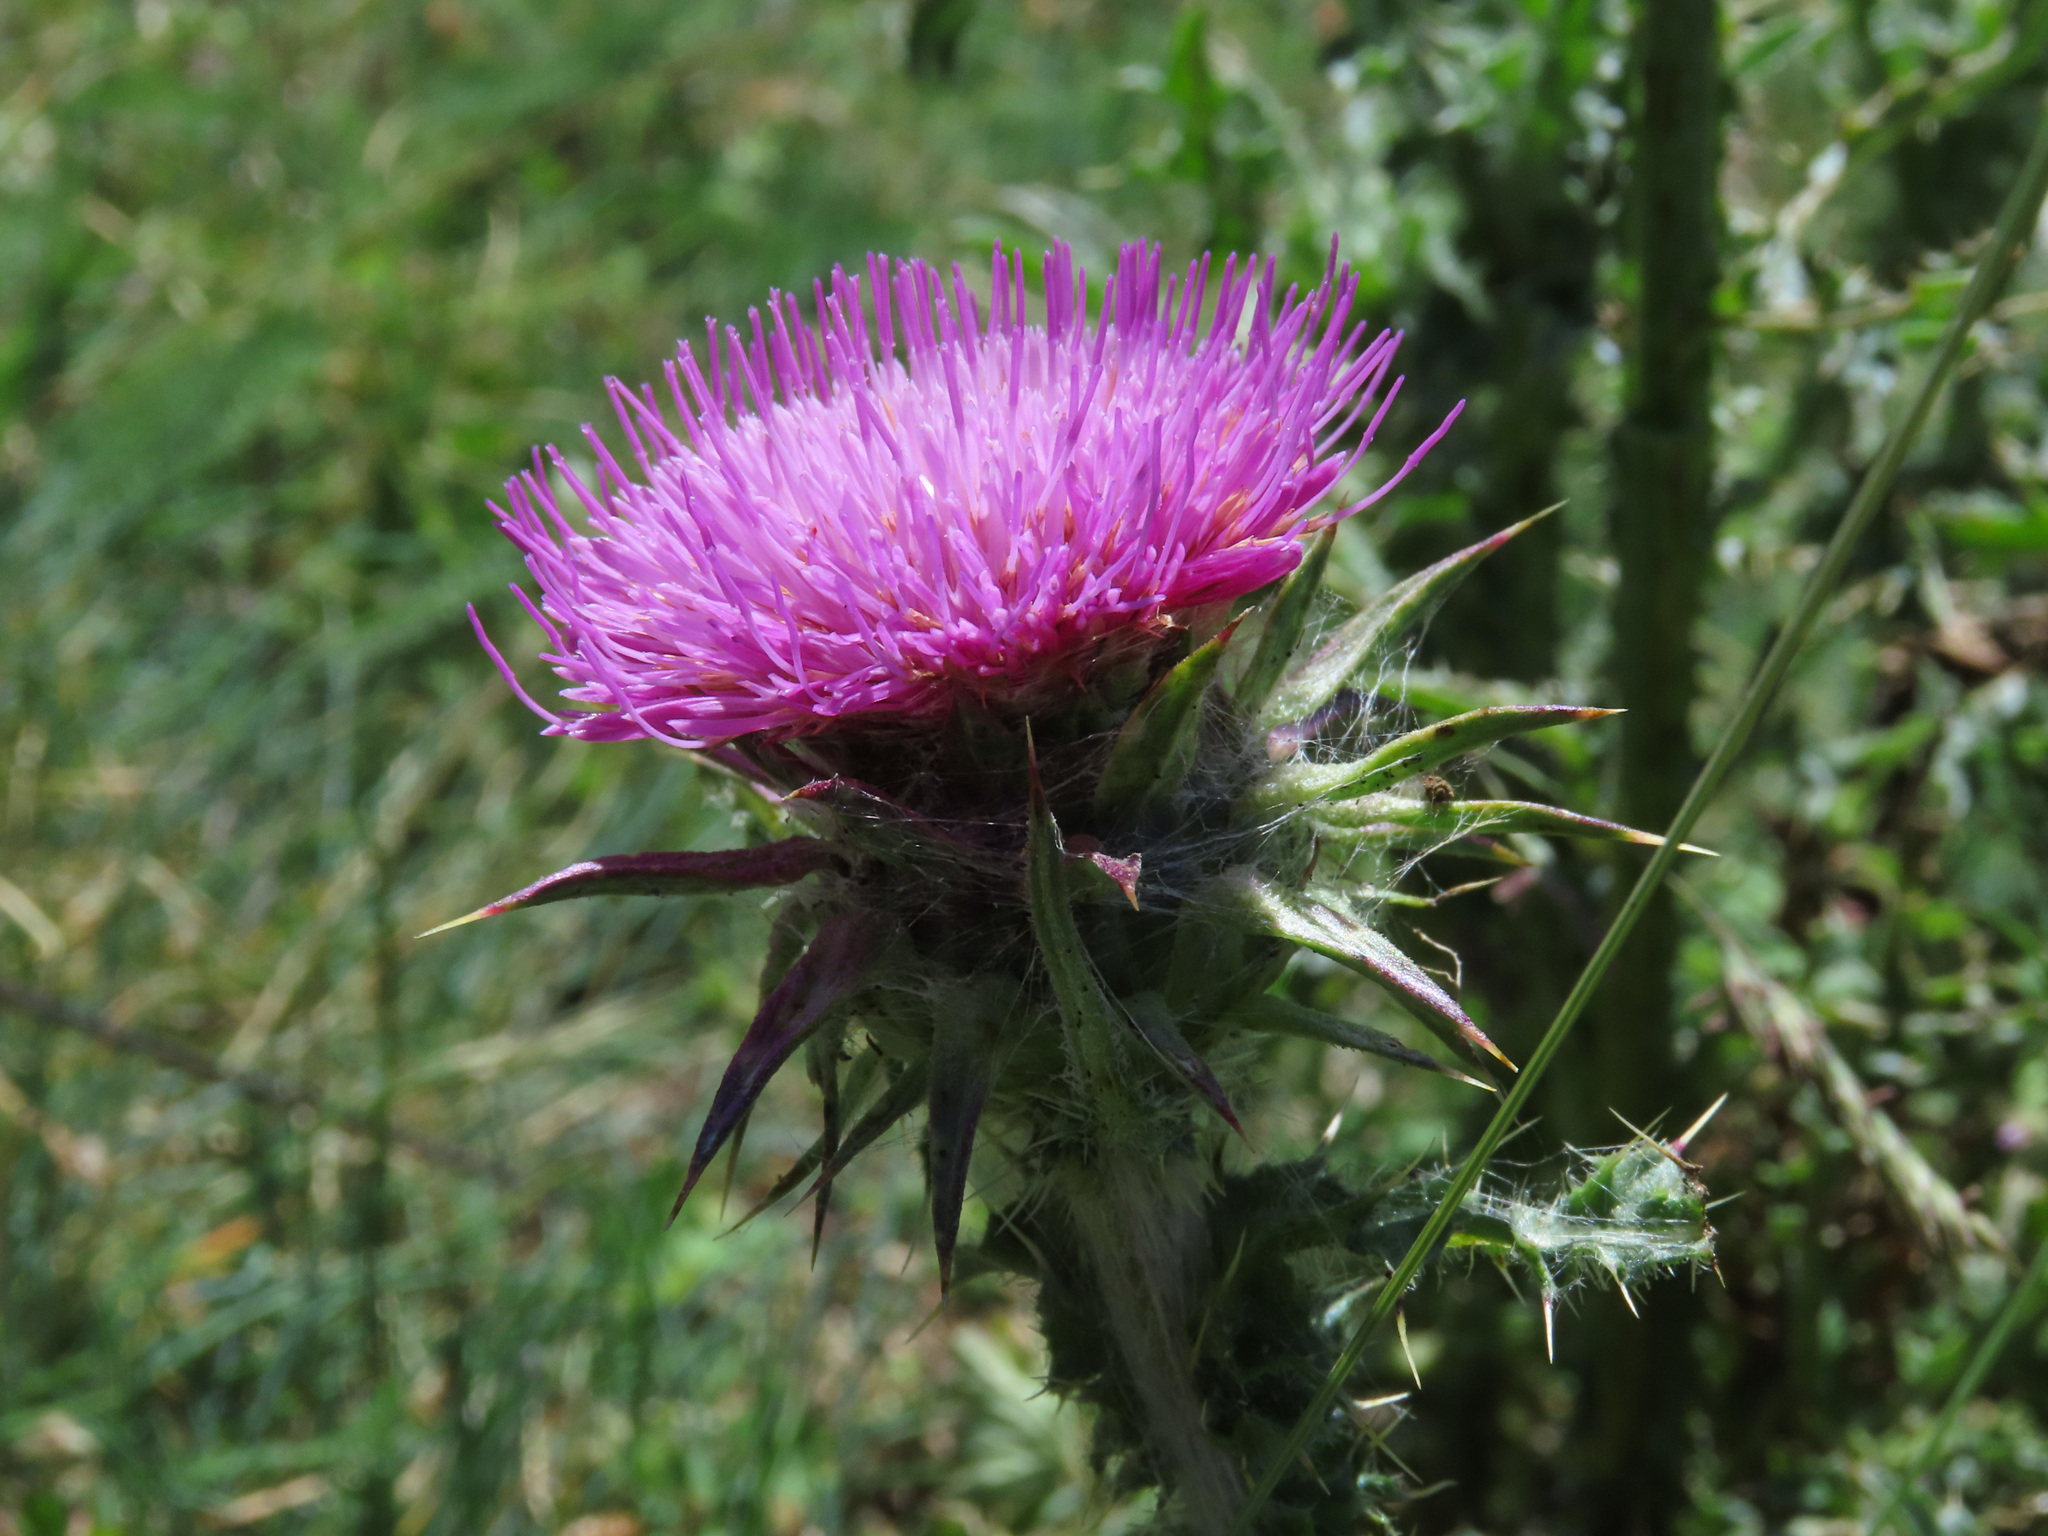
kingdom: Plantae
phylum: Tracheophyta
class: Magnoliopsida
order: Asterales
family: Asteraceae
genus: Carduus
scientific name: Carduus nutans
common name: Musk thistle
